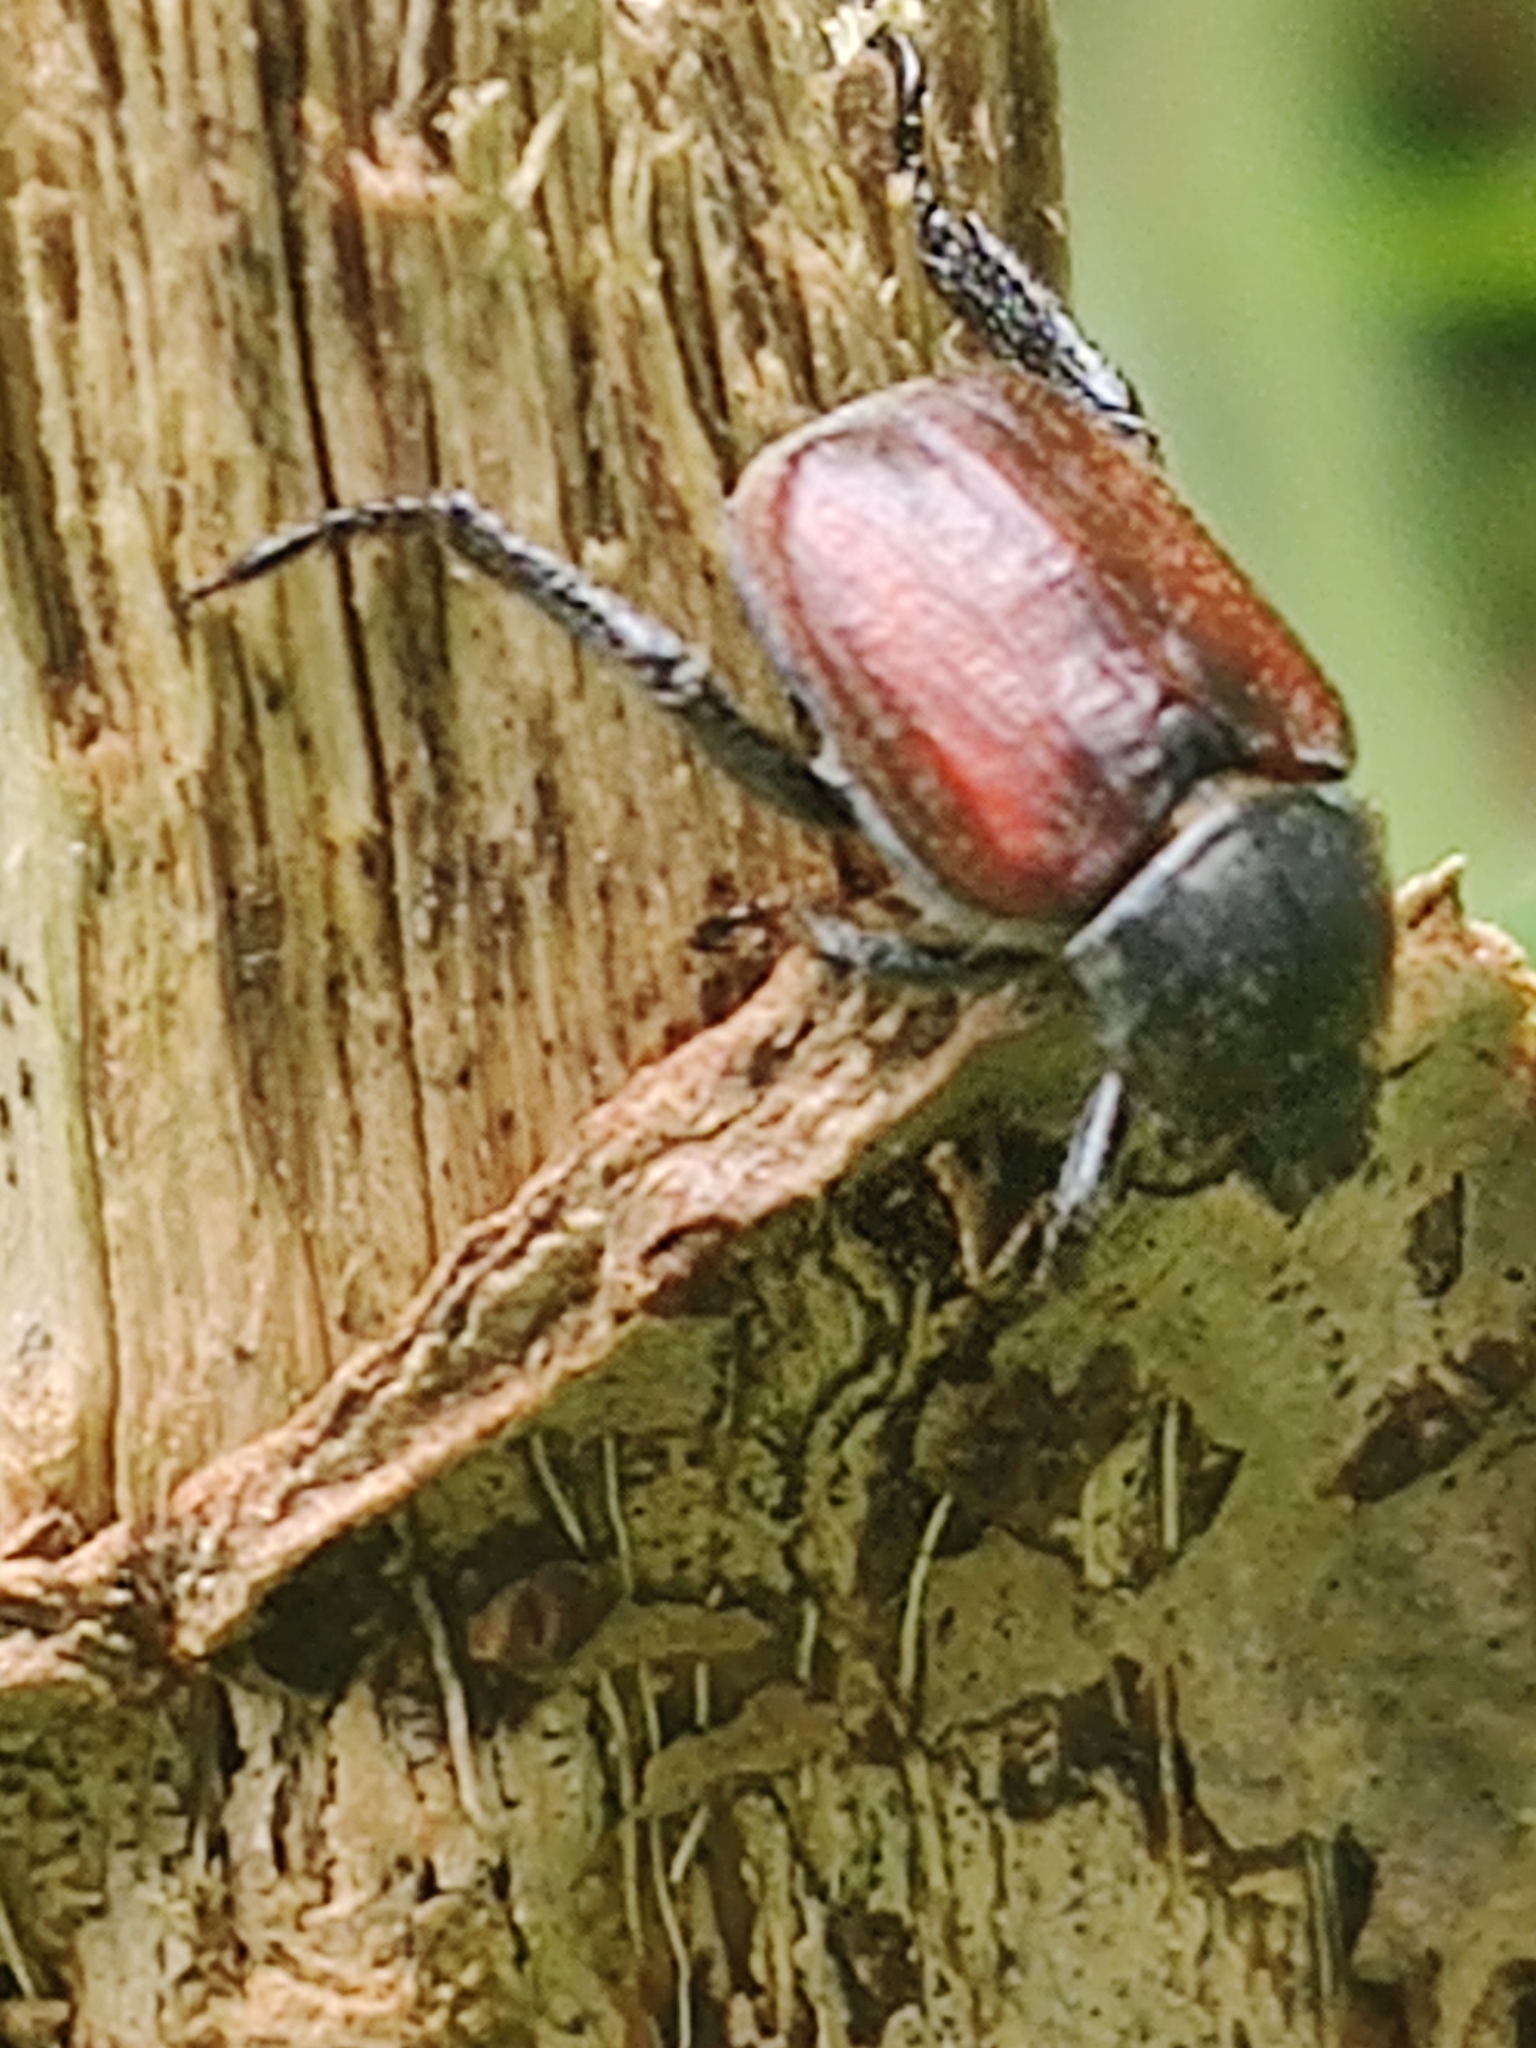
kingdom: Animalia
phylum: Arthropoda
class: Insecta
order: Coleoptera
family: Scarabaeidae
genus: Hoplia
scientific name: Hoplia philanthus
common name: Welsh chafer
